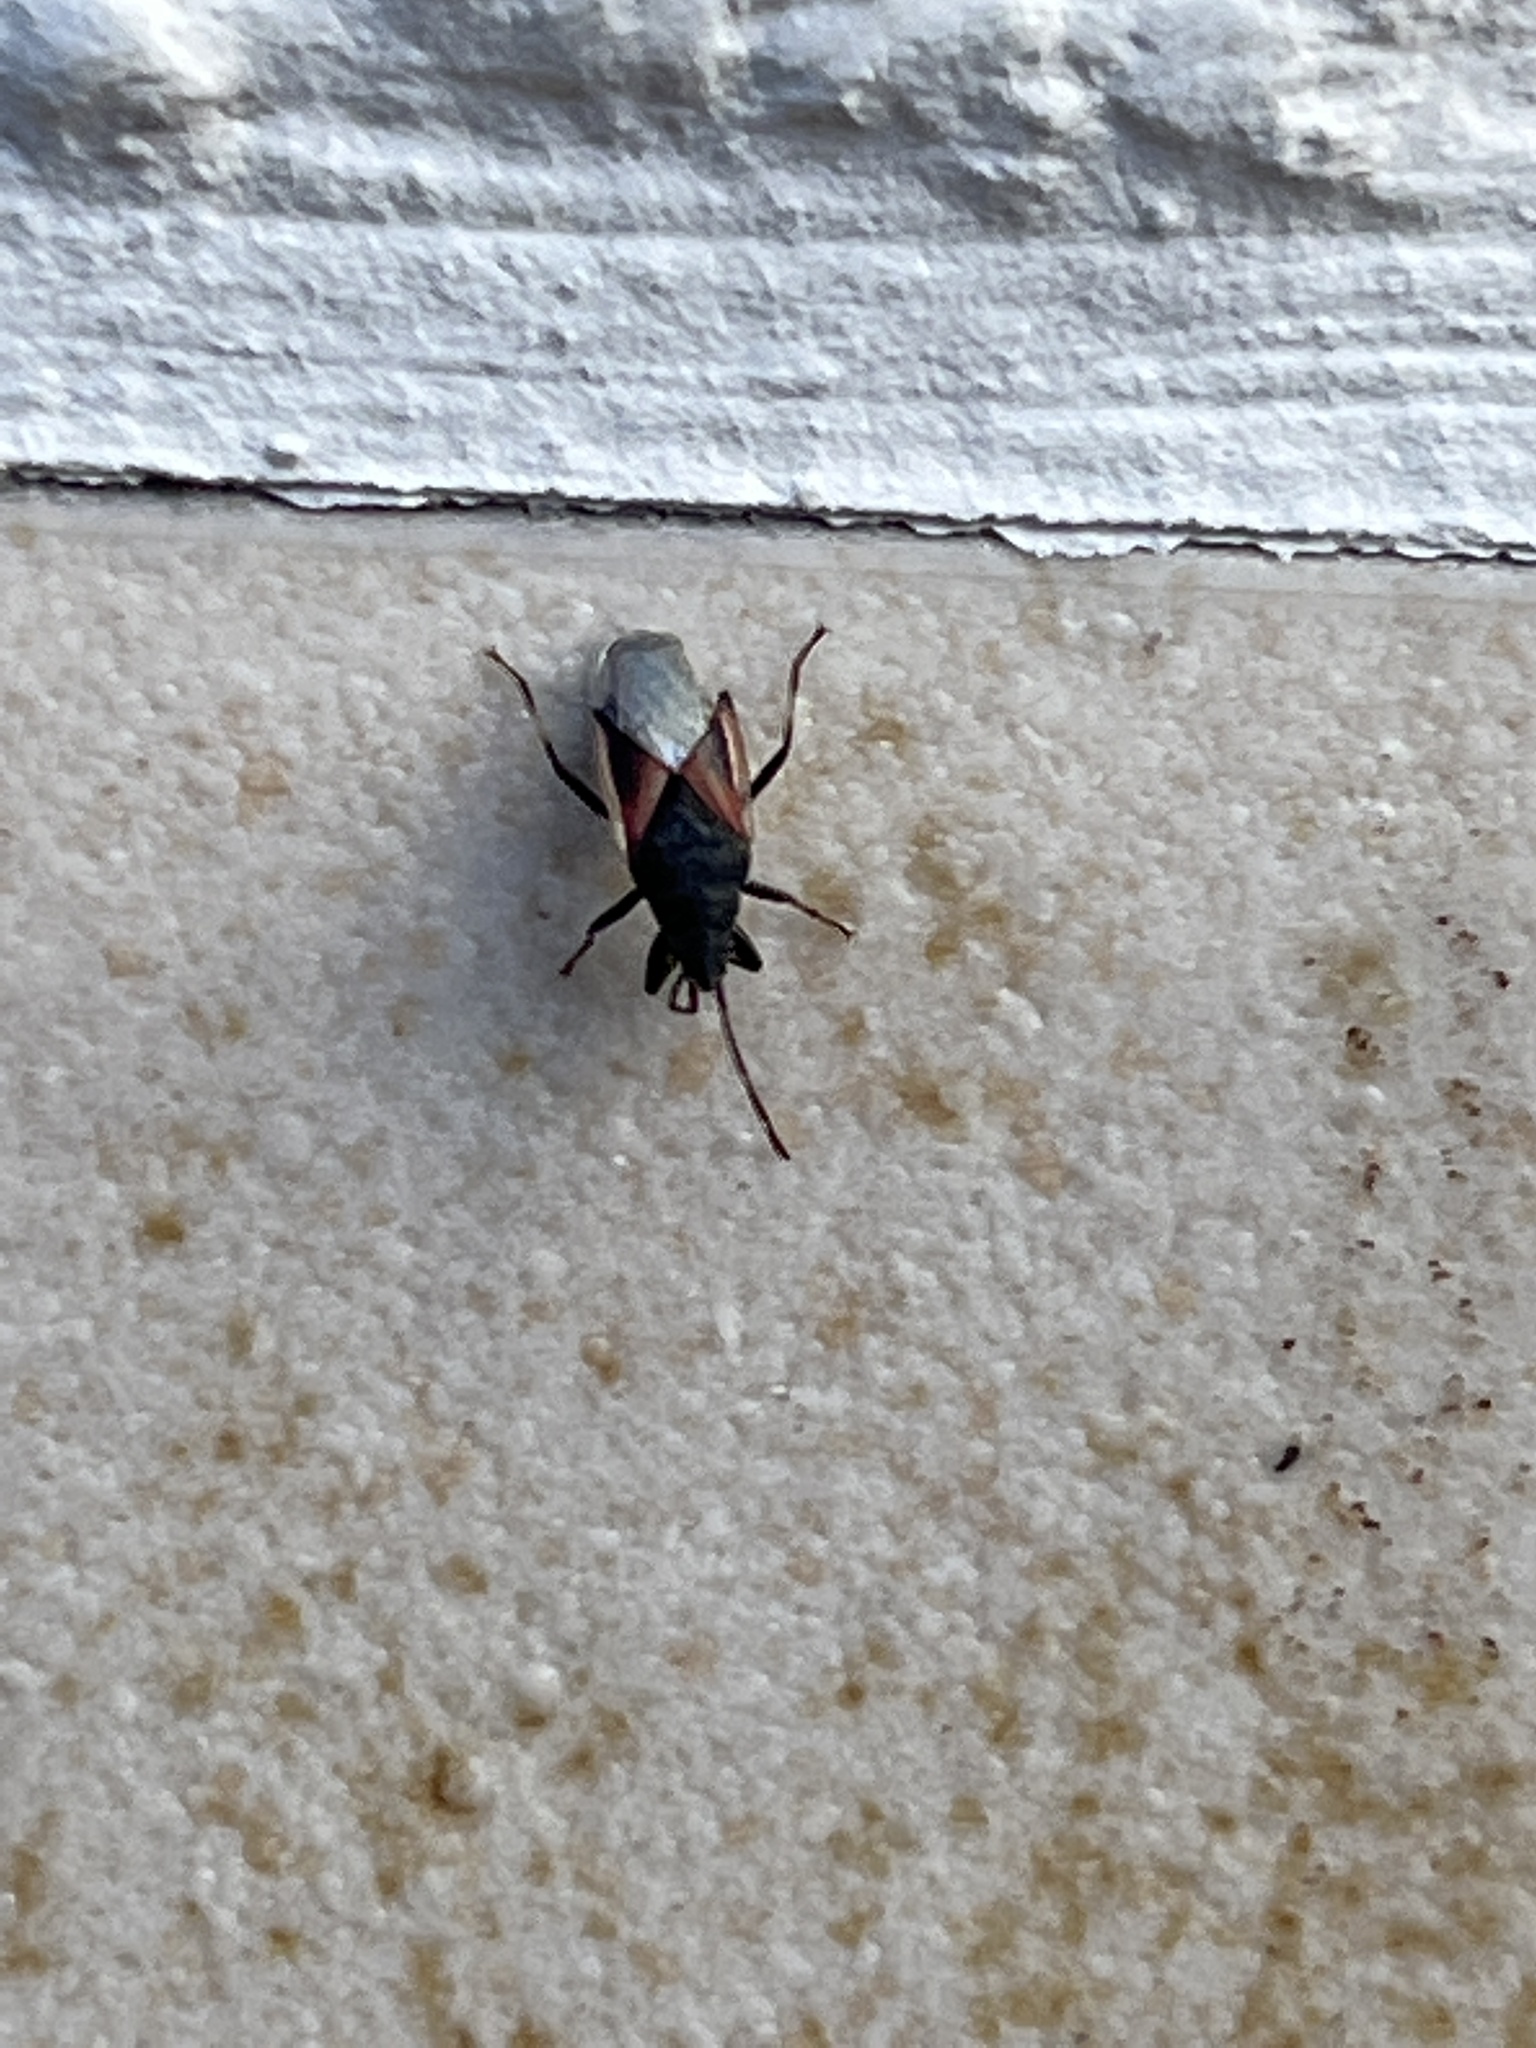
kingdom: Animalia
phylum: Arthropoda
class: Insecta
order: Hemiptera
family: Oxycarenidae
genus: Oxycarenus
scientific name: Oxycarenus lavaterae
